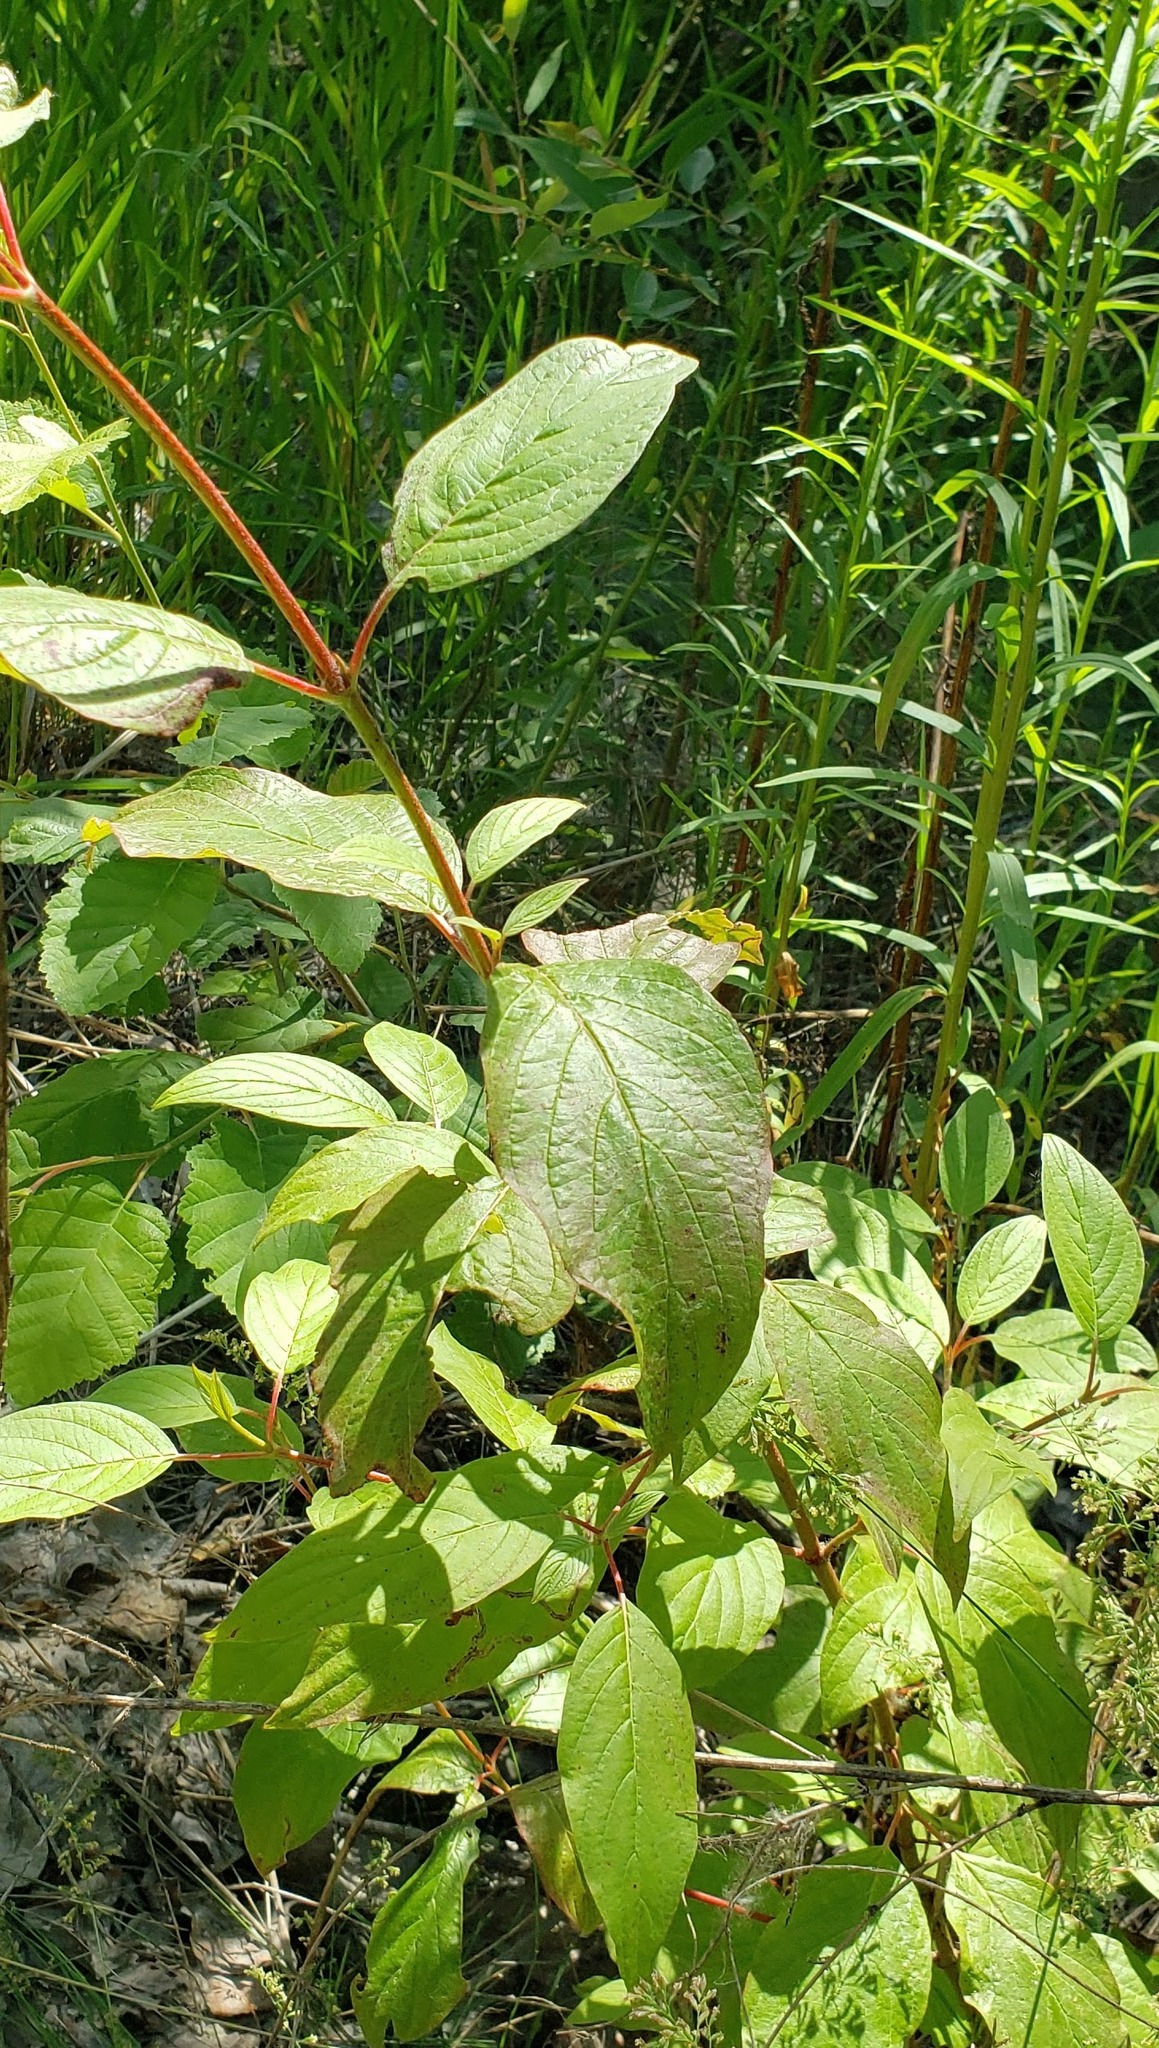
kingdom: Plantae
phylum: Tracheophyta
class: Magnoliopsida
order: Cornales
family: Cornaceae
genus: Cornus
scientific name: Cornus sericea
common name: Red-osier dogwood
